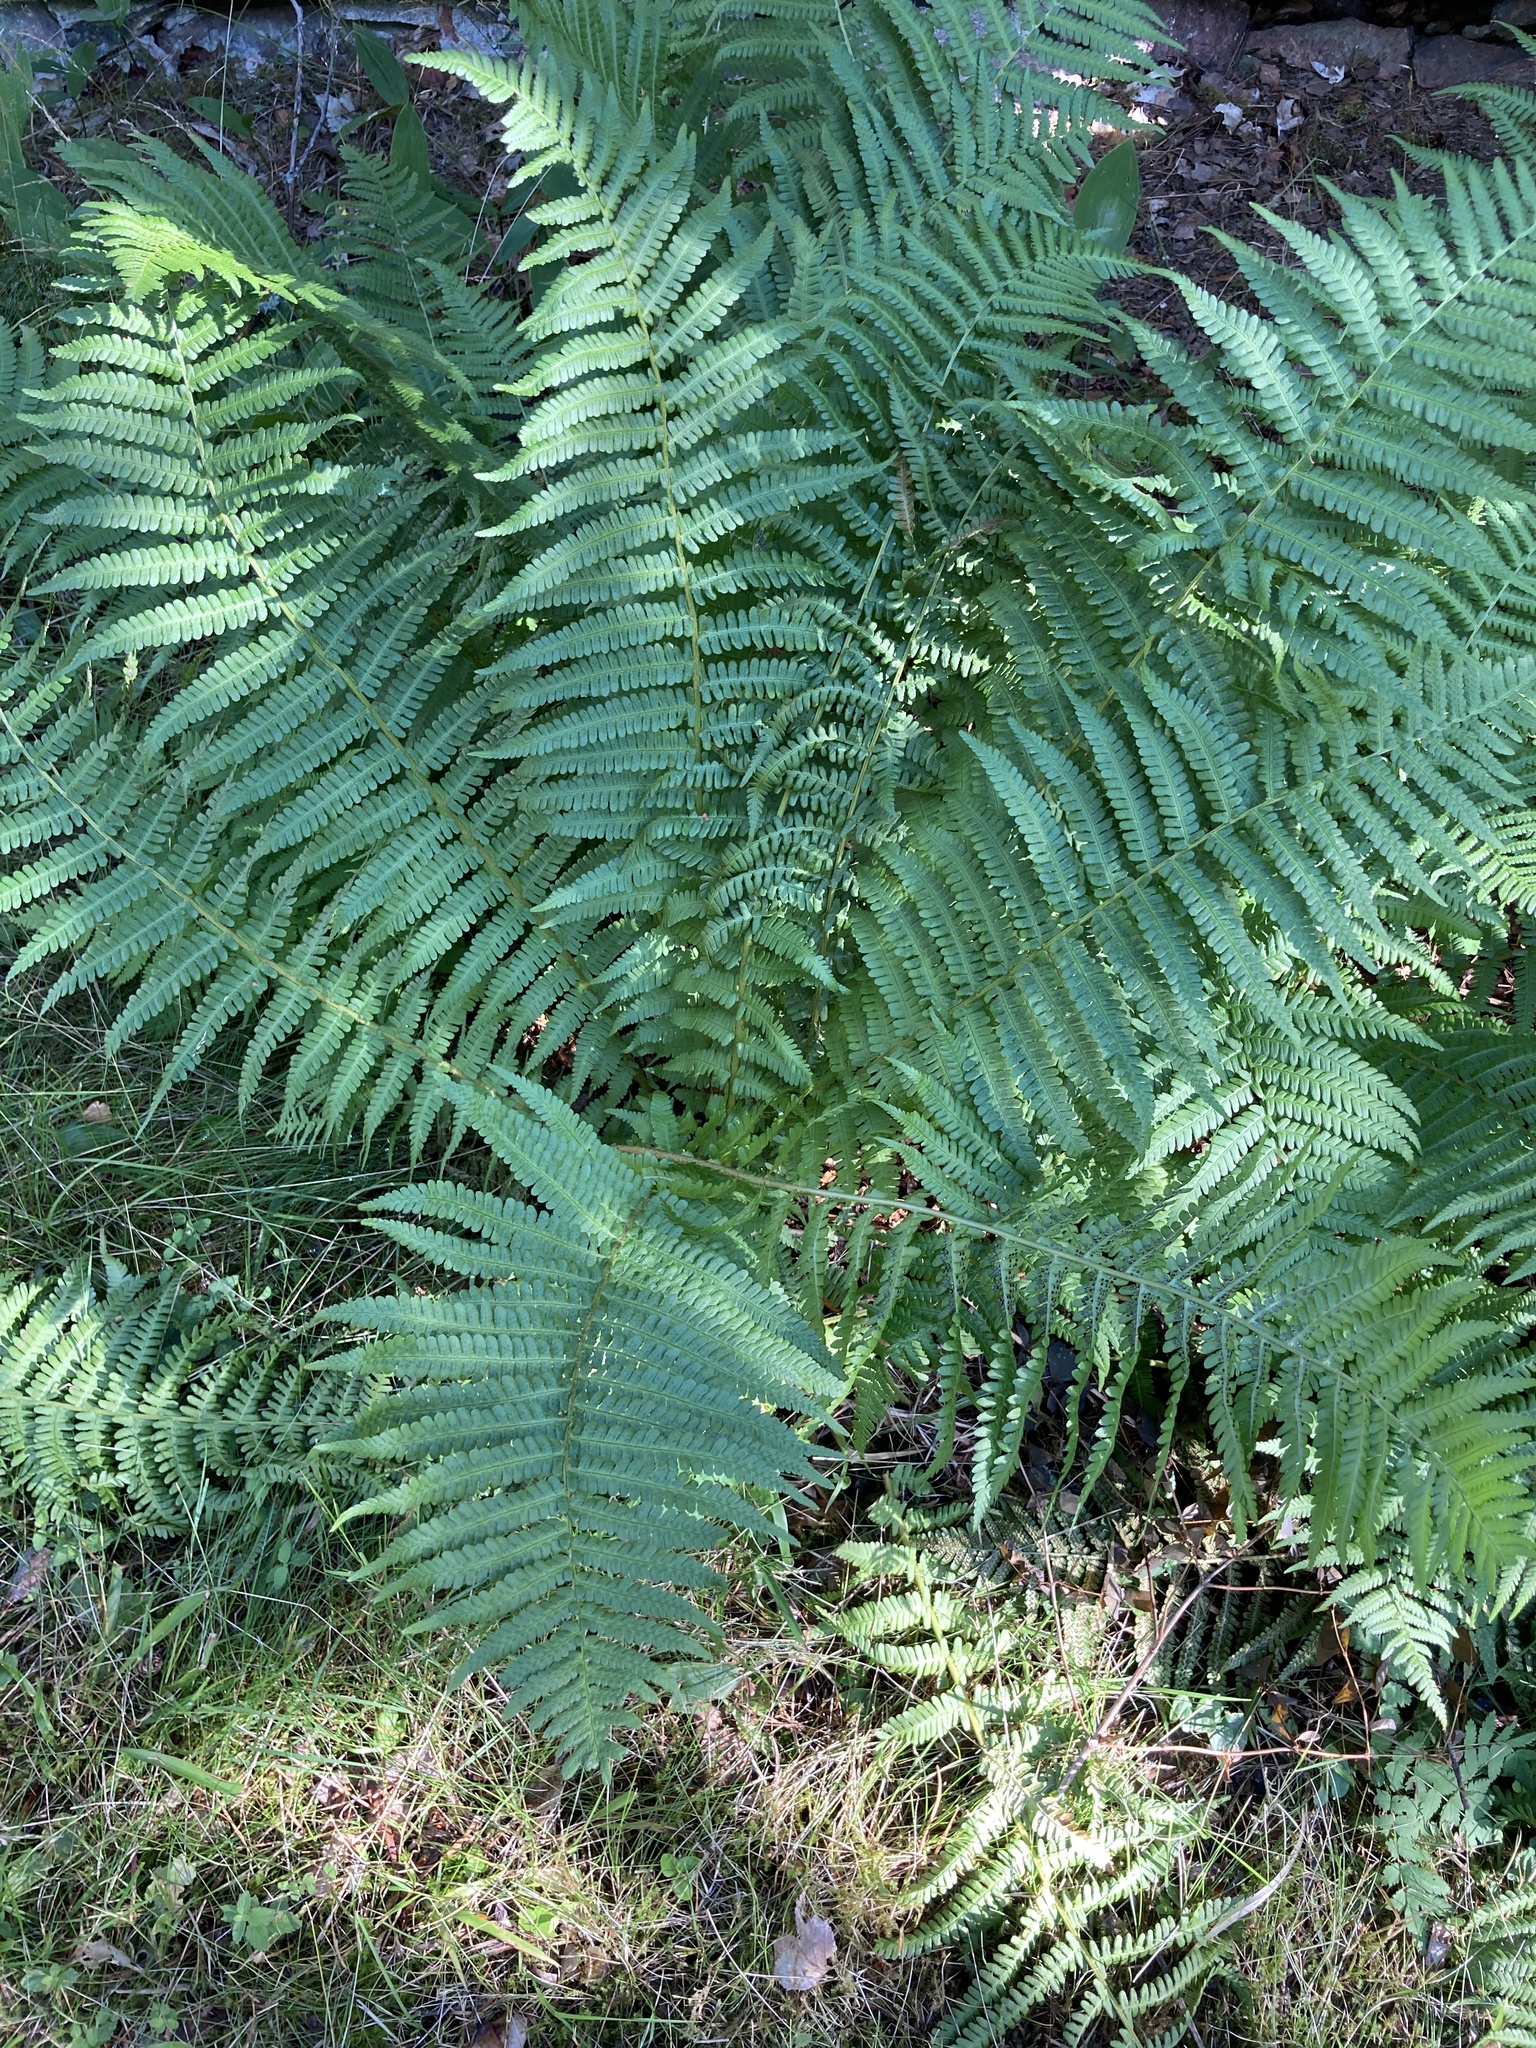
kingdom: Plantae
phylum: Tracheophyta
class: Polypodiopsida
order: Polypodiales
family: Dryopteridaceae
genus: Dryopteris
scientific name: Dryopteris filix-mas
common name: Male fern
